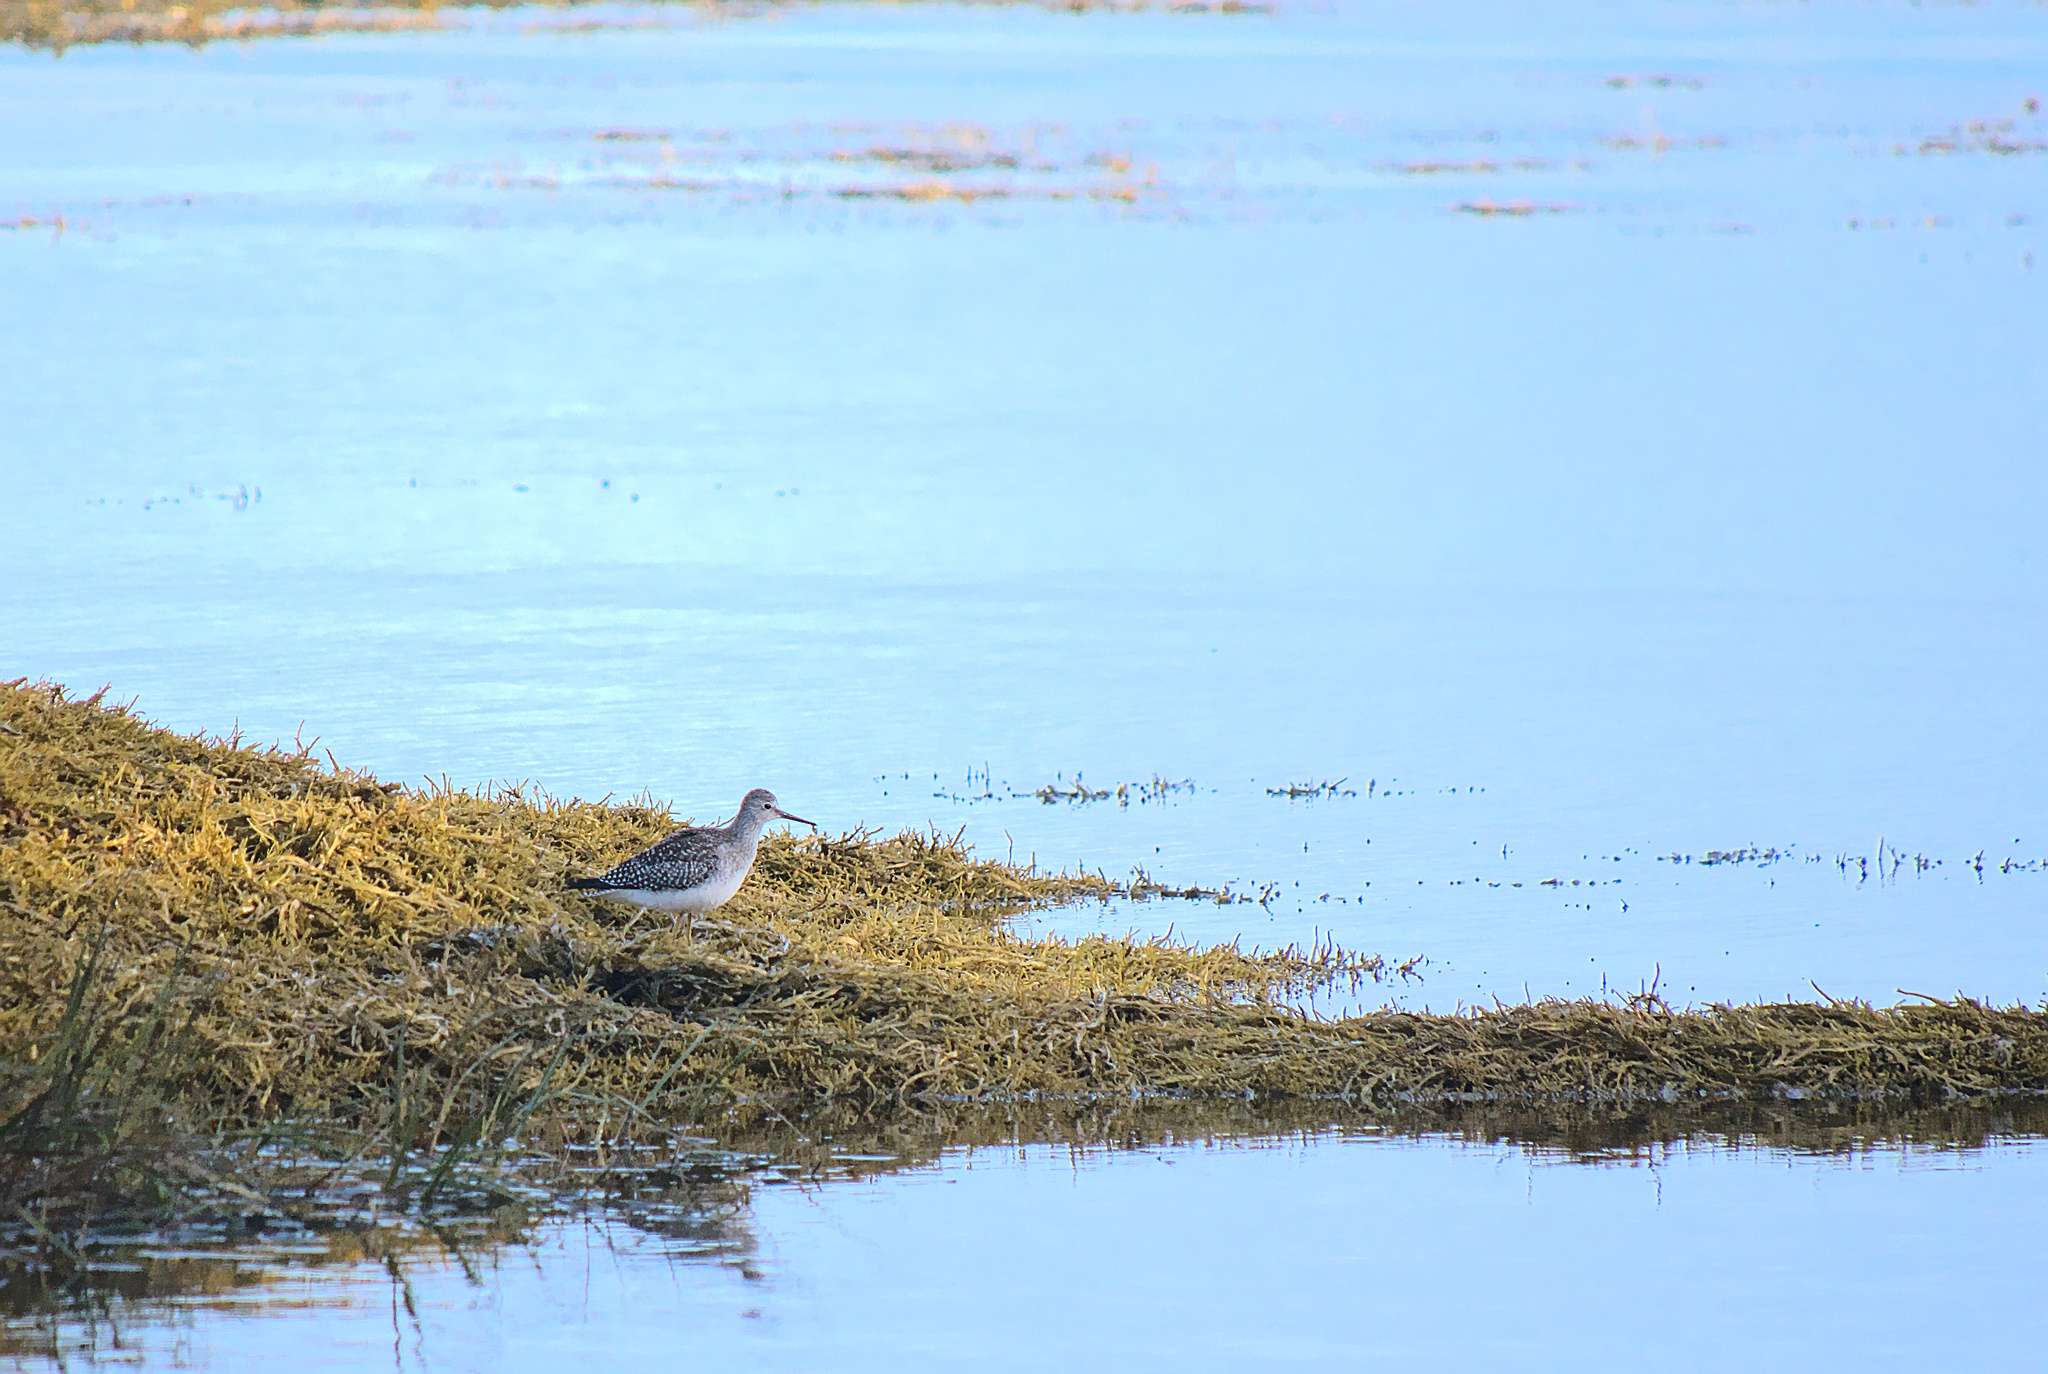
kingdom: Animalia
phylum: Chordata
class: Aves
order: Charadriiformes
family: Scolopacidae
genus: Tringa
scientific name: Tringa flavipes
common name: Lesser yellowlegs
